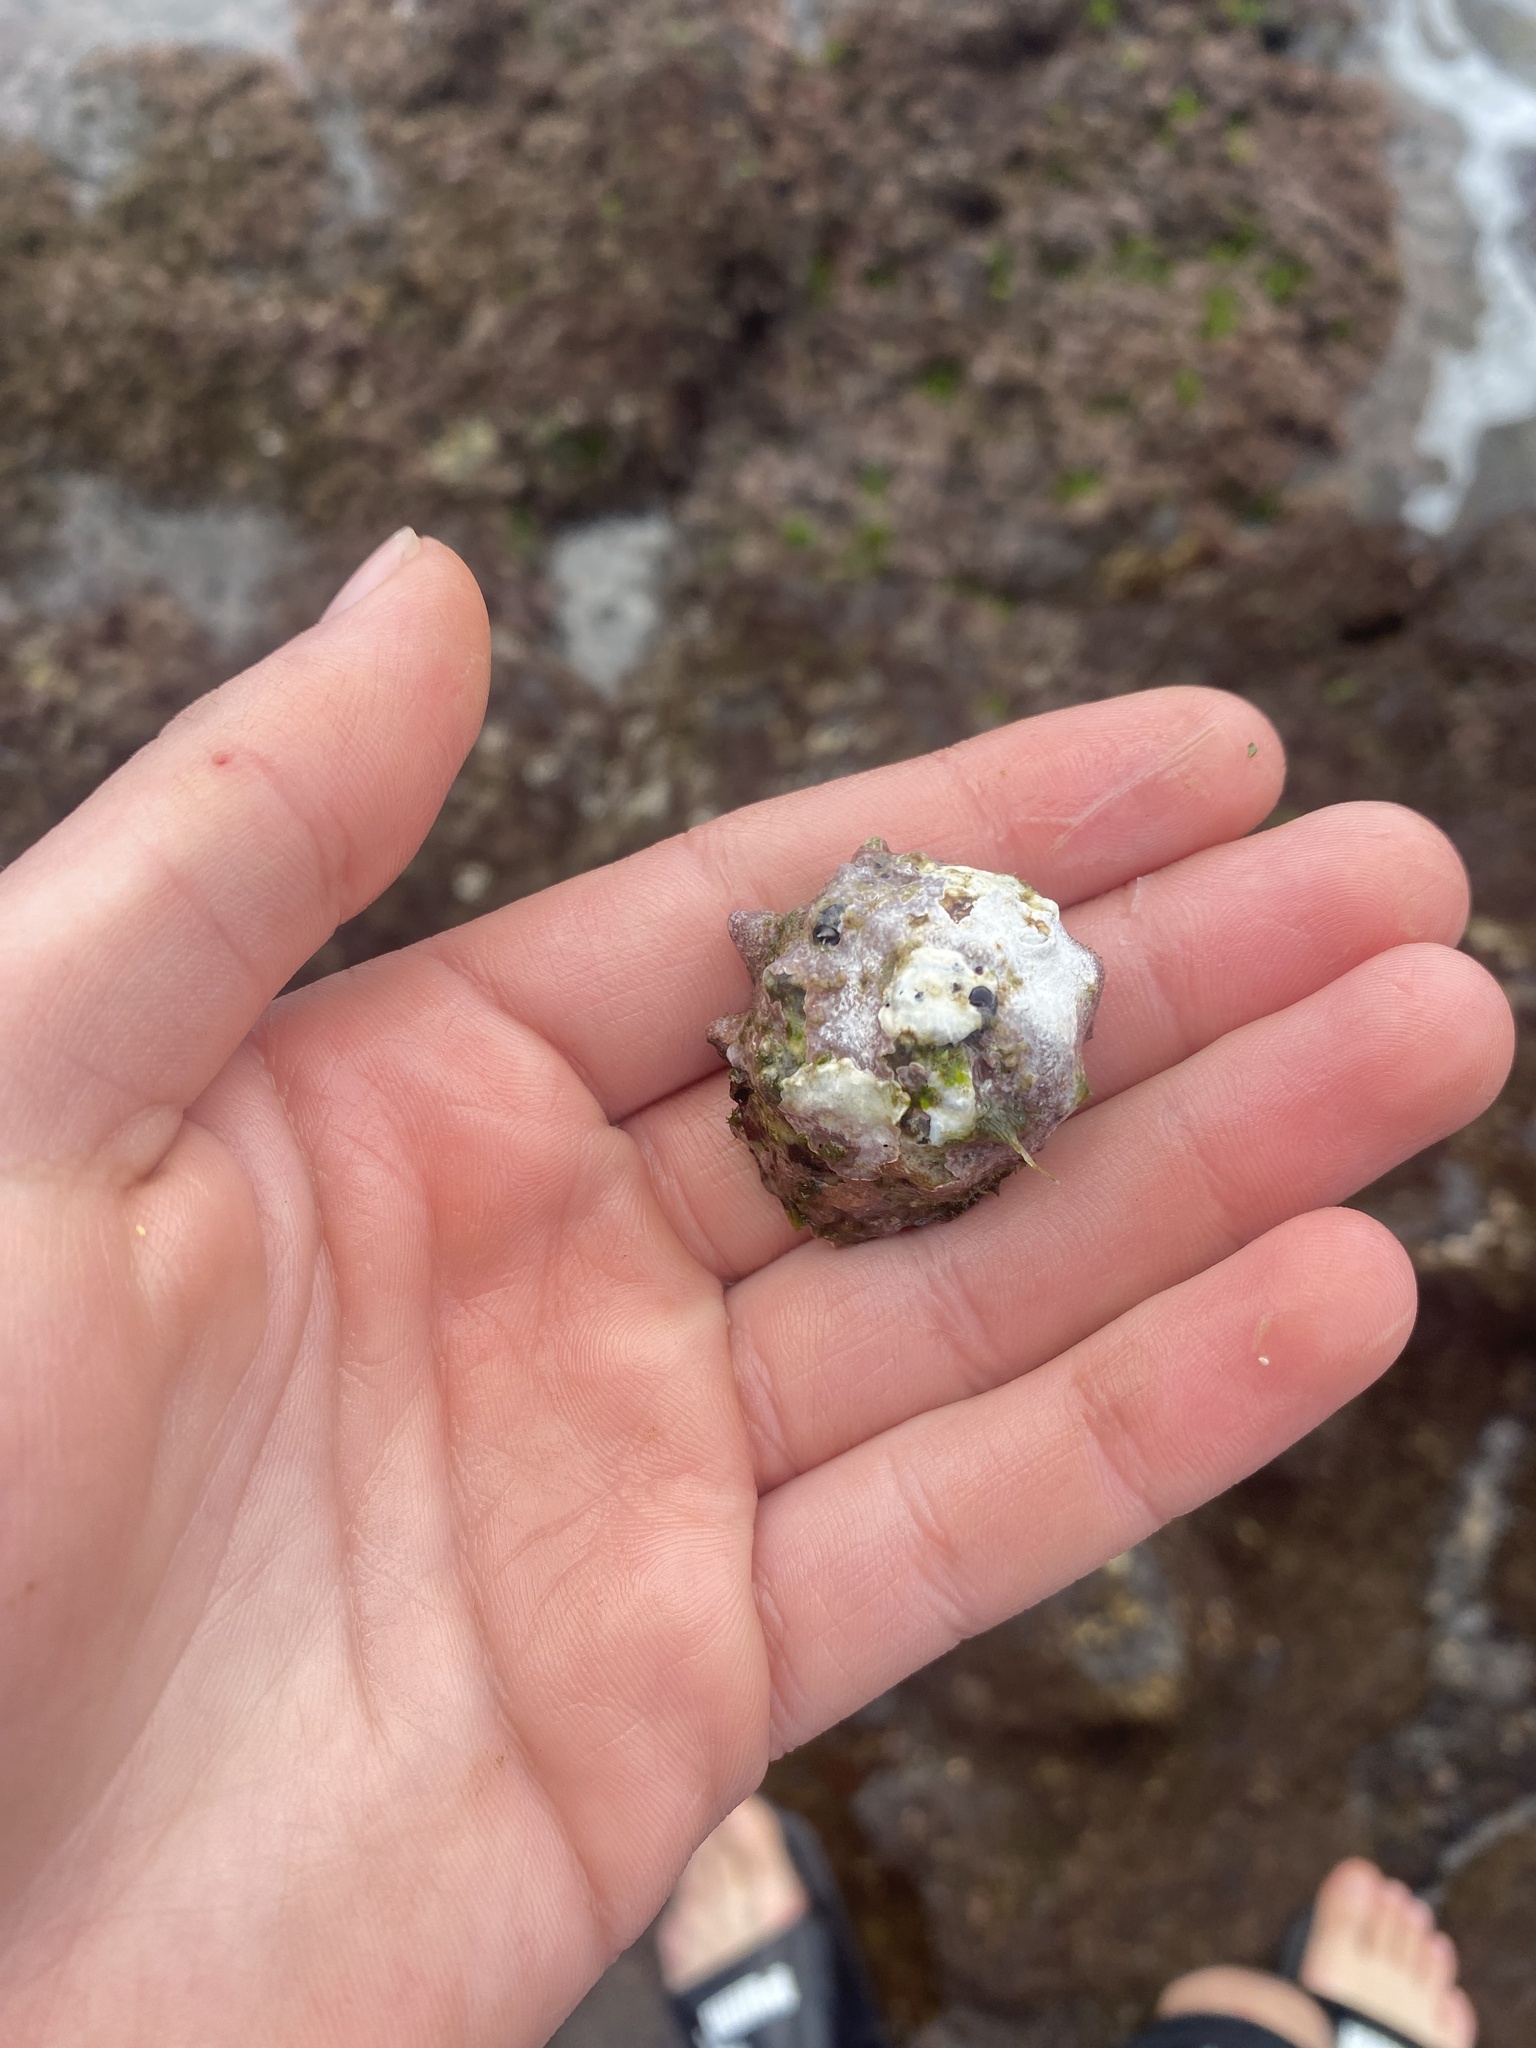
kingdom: Animalia
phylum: Mollusca
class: Gastropoda
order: Neogastropoda
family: Muricidae
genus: Drupa
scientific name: Drupa morum
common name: Purple drupe
